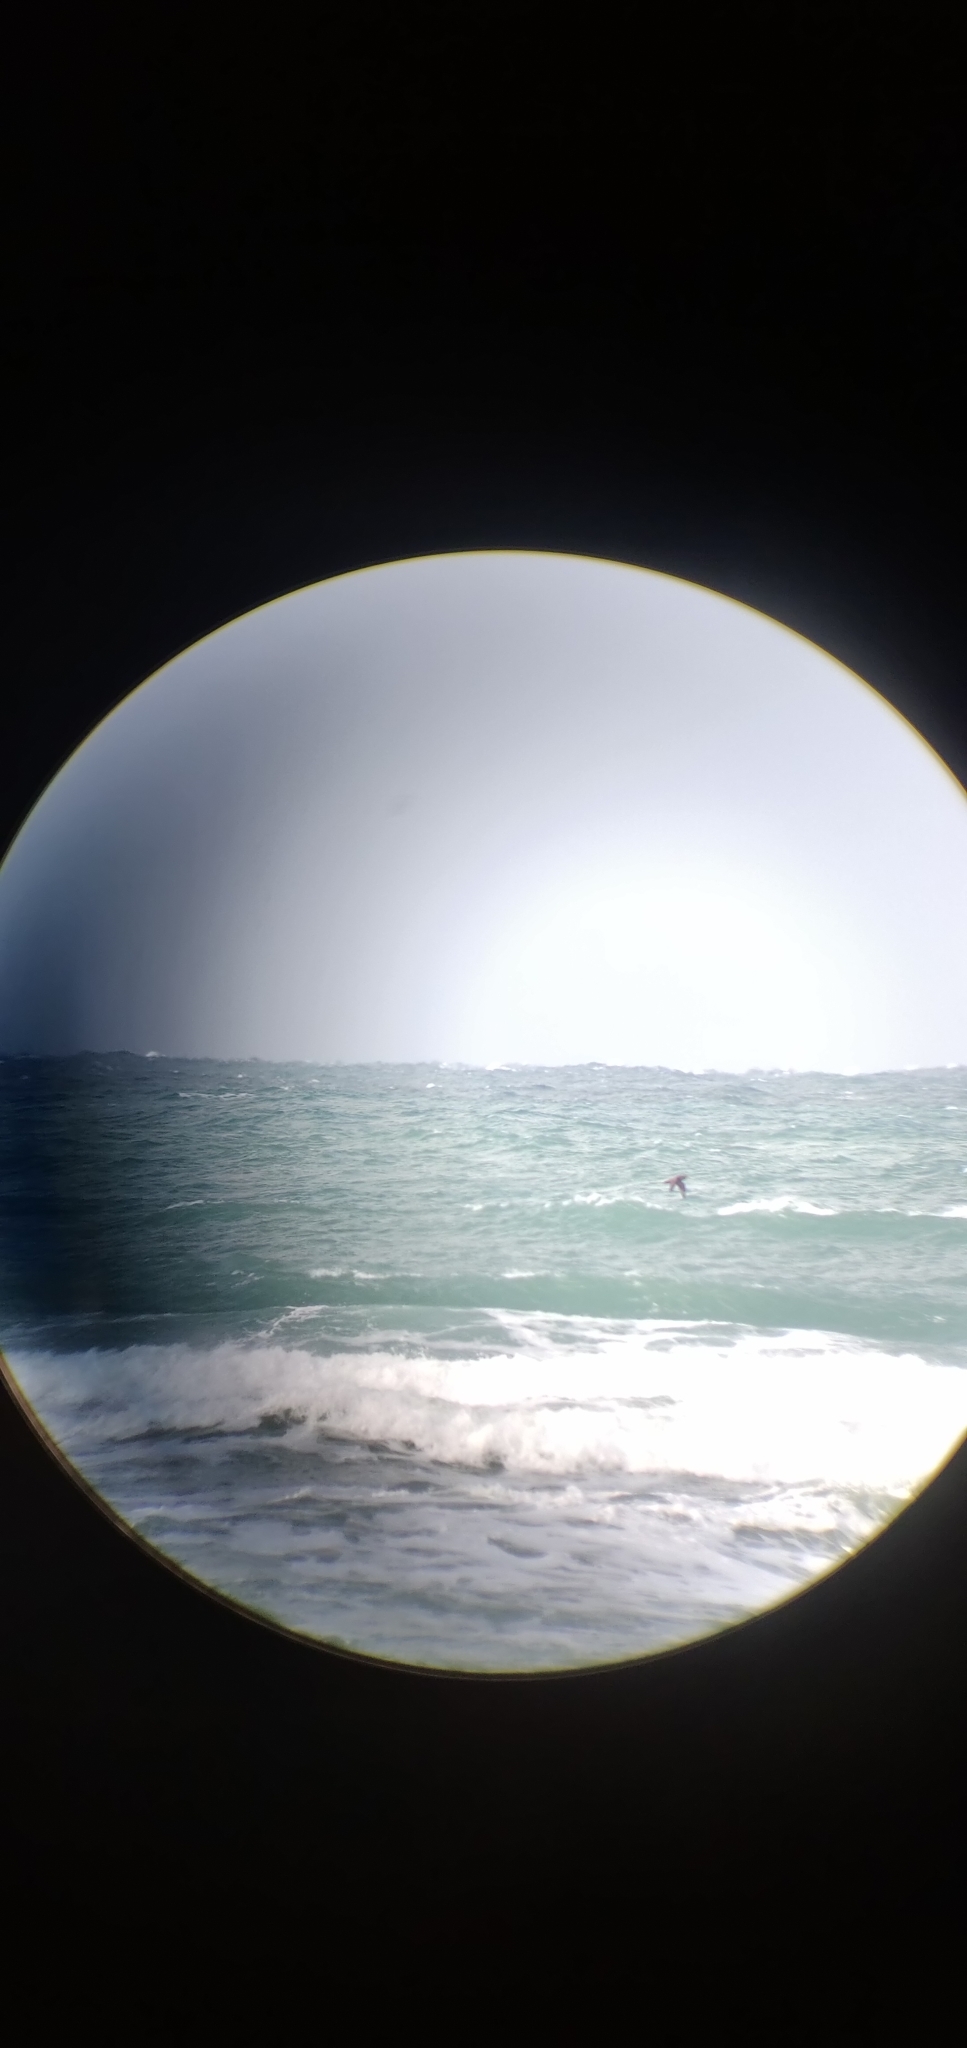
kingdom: Animalia
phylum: Chordata
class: Aves
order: Procellariiformes
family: Procellariidae
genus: Macronectes
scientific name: Macronectes
